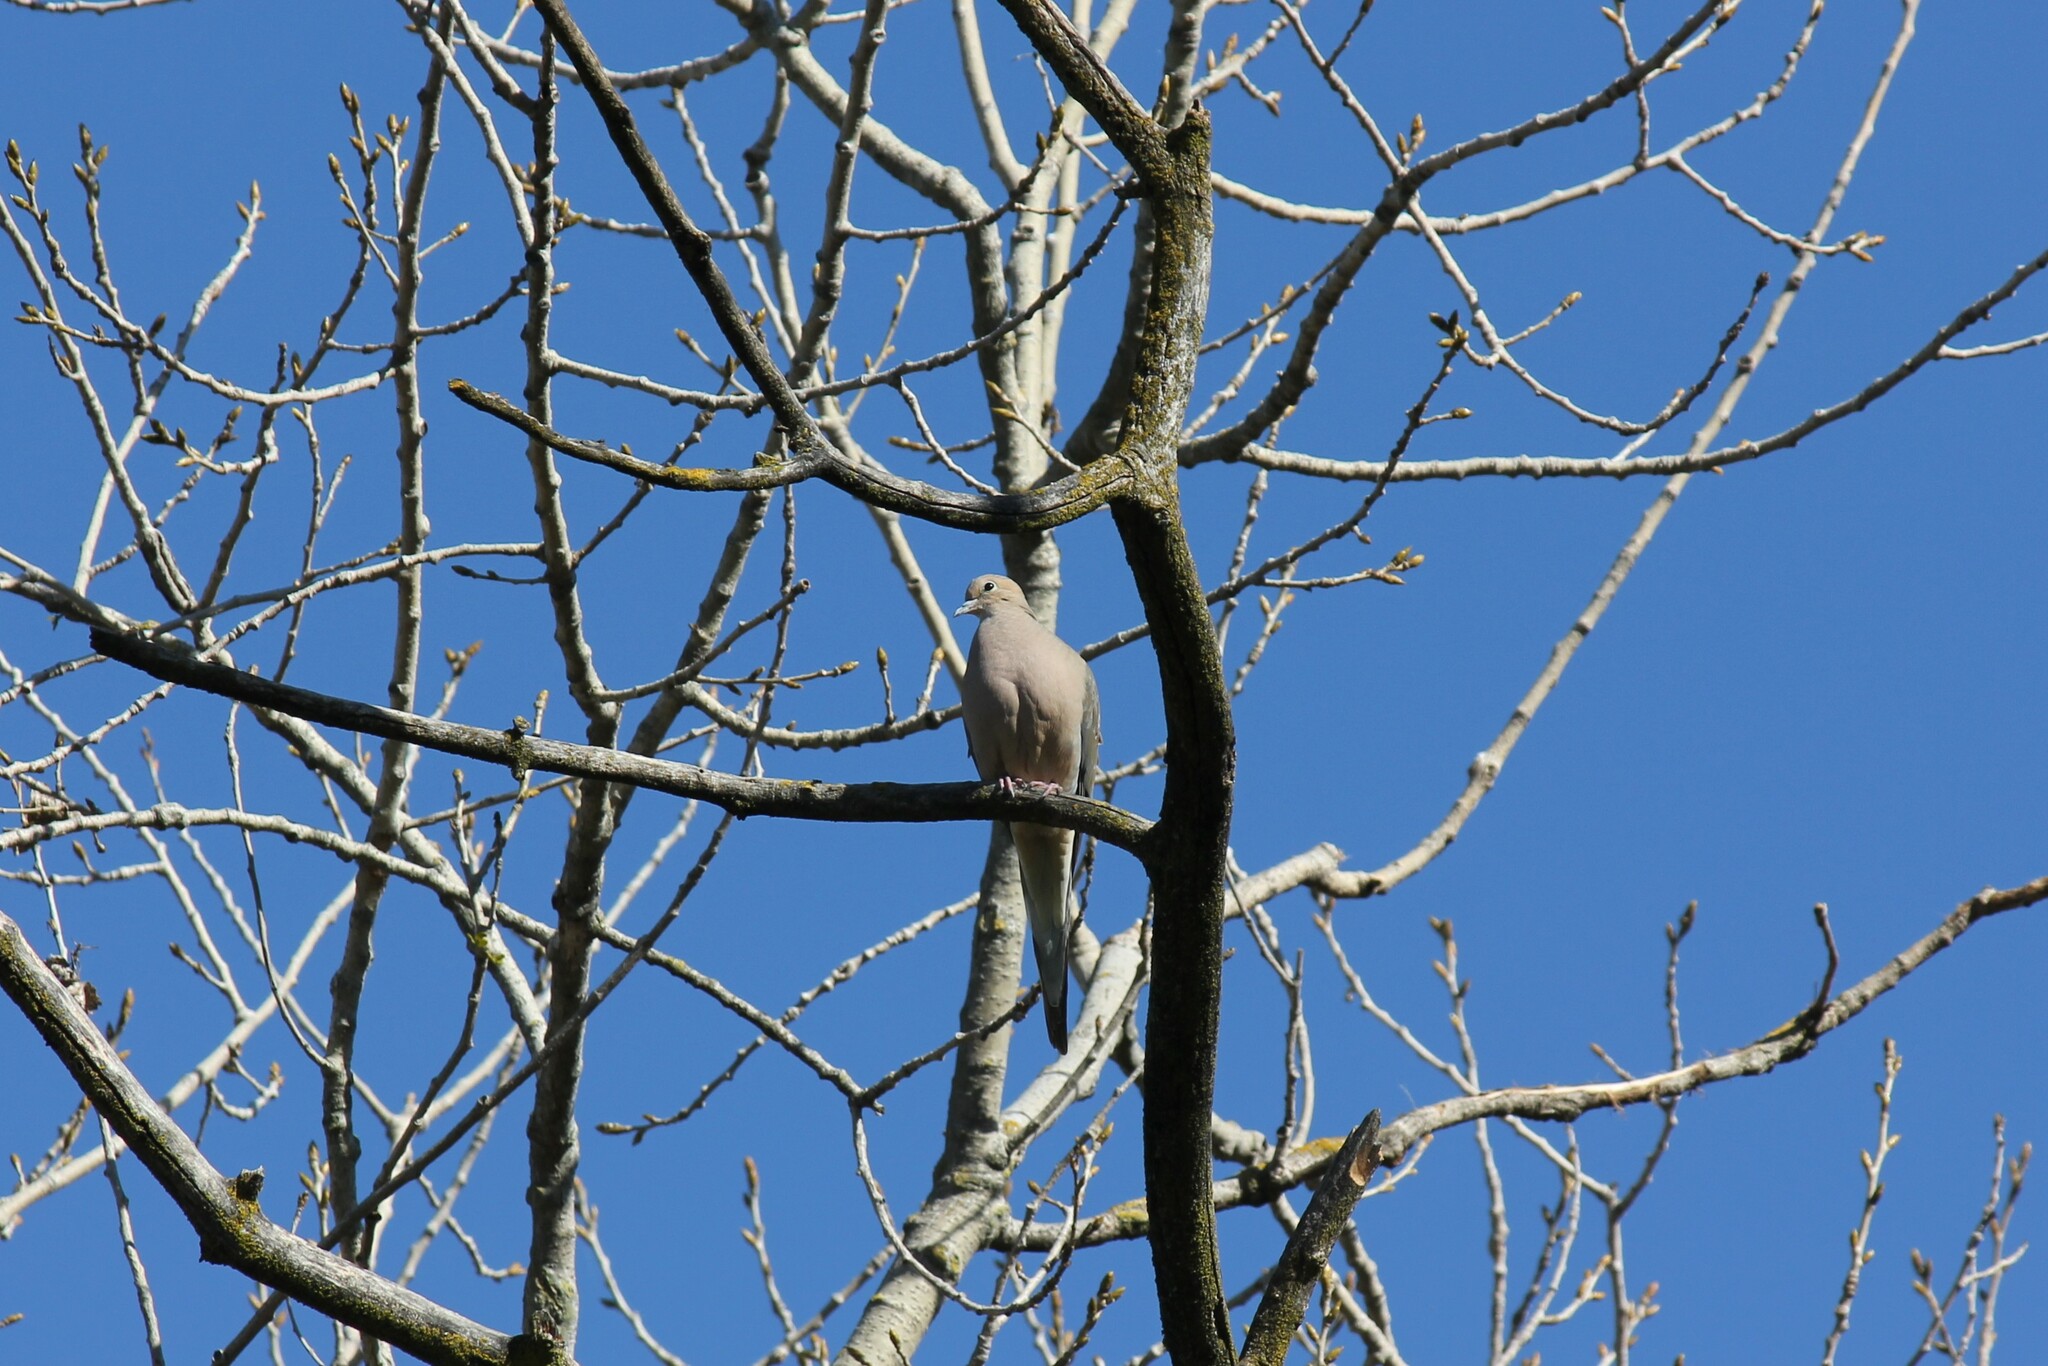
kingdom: Animalia
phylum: Chordata
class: Aves
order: Columbiformes
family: Columbidae
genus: Zenaida
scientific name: Zenaida macroura
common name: Mourning dove
